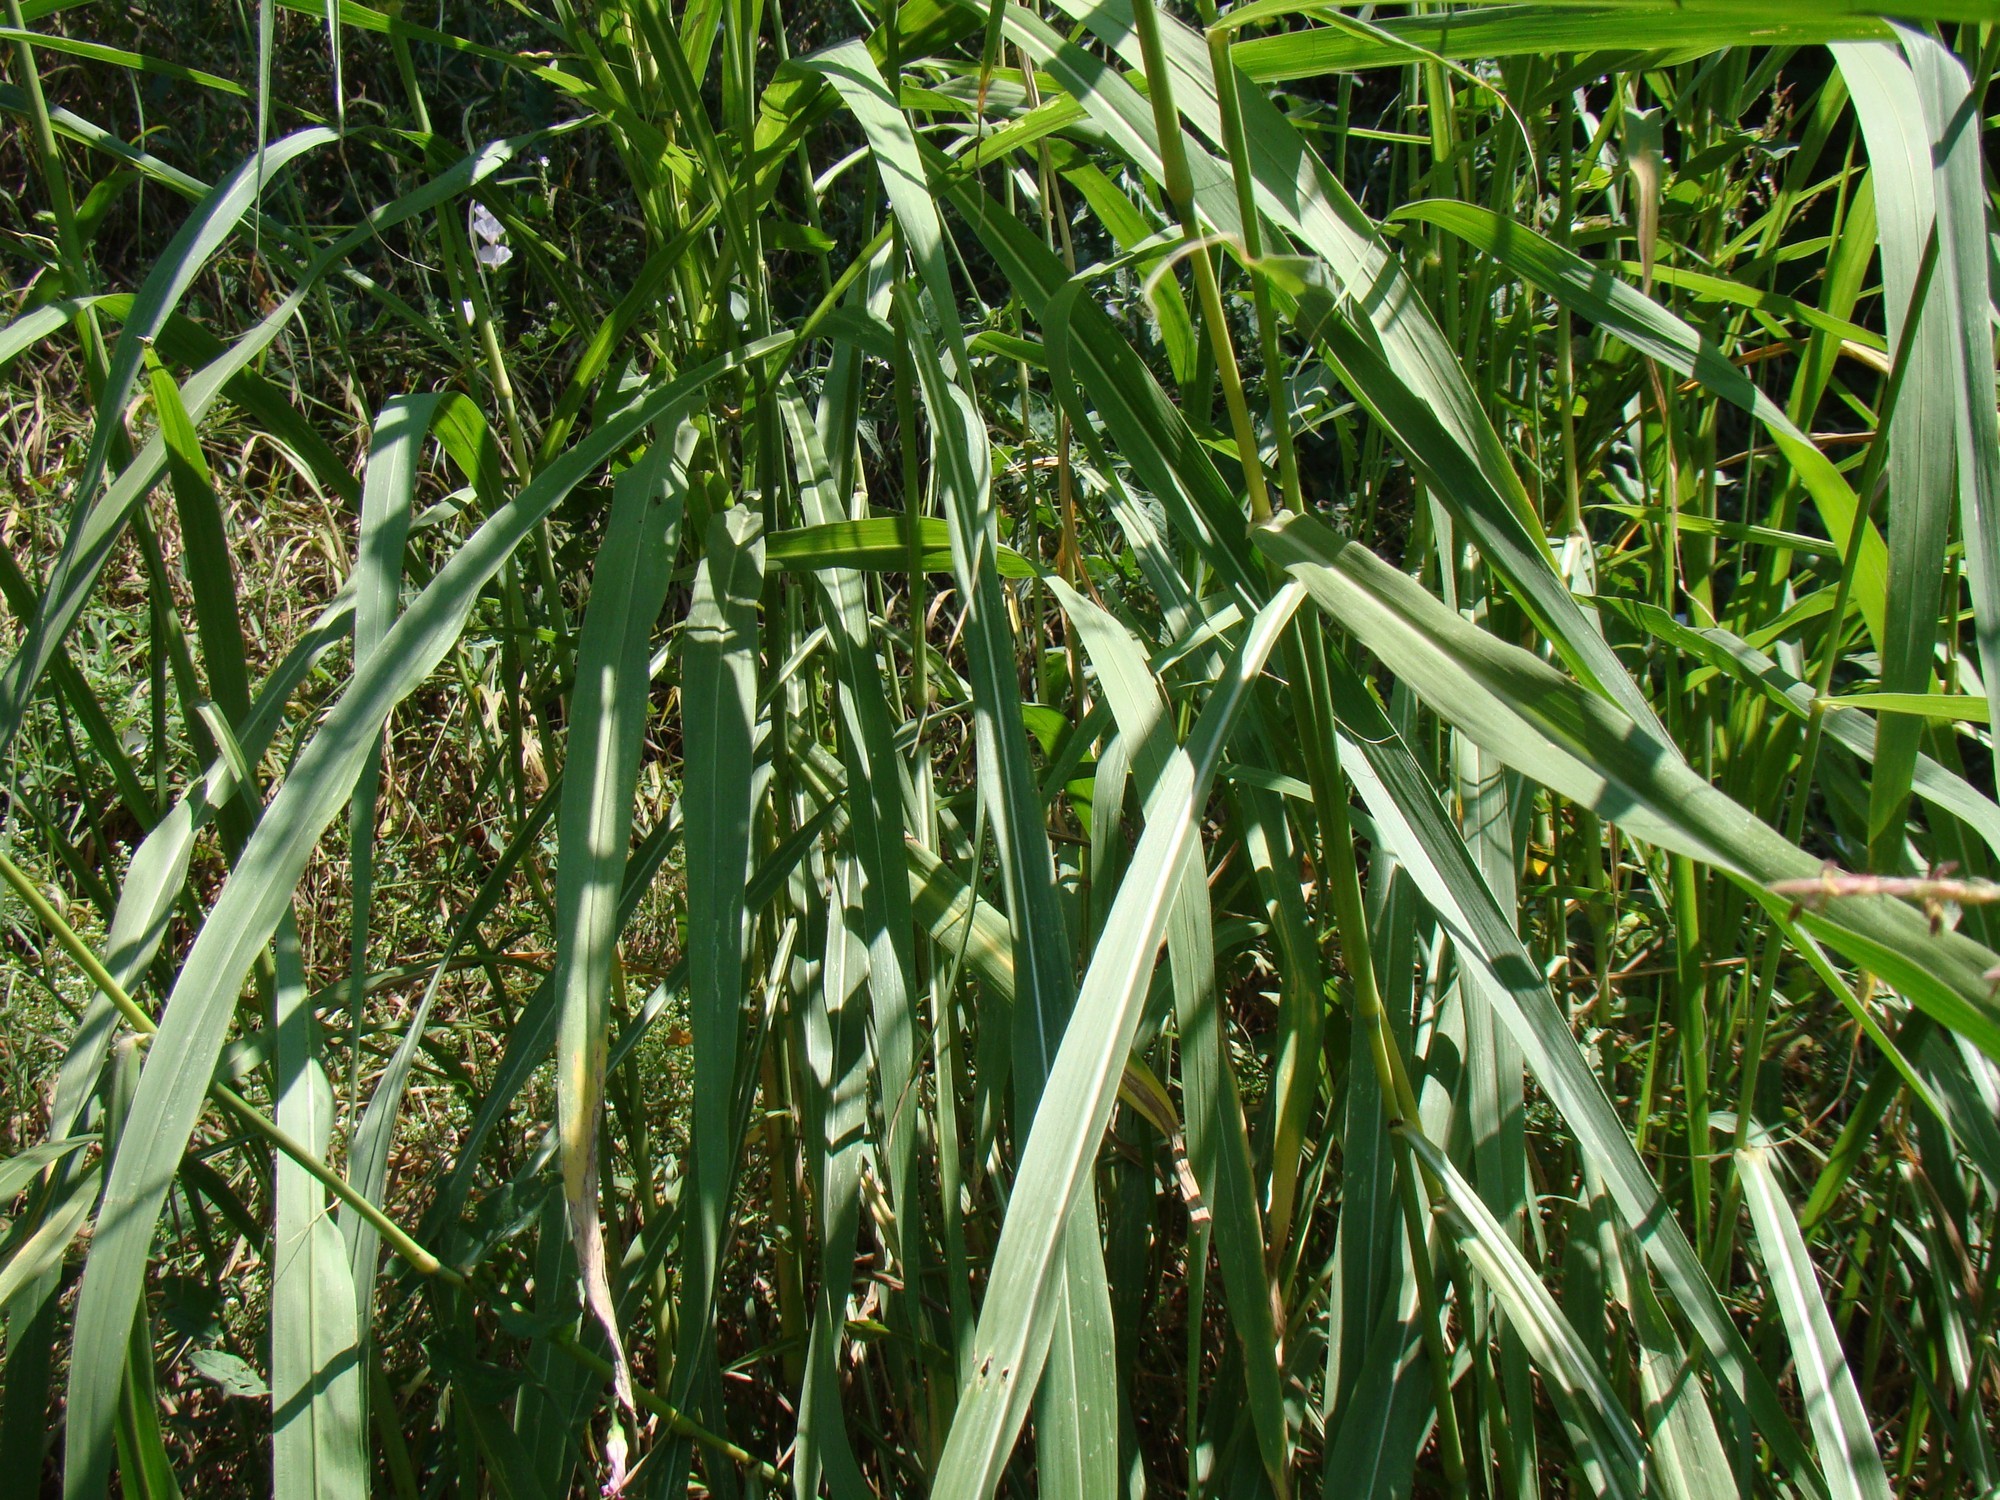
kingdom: Plantae
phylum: Tracheophyta
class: Liliopsida
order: Poales
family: Poaceae
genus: Sorghum
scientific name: Sorghum halepense
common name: Johnson-grass
